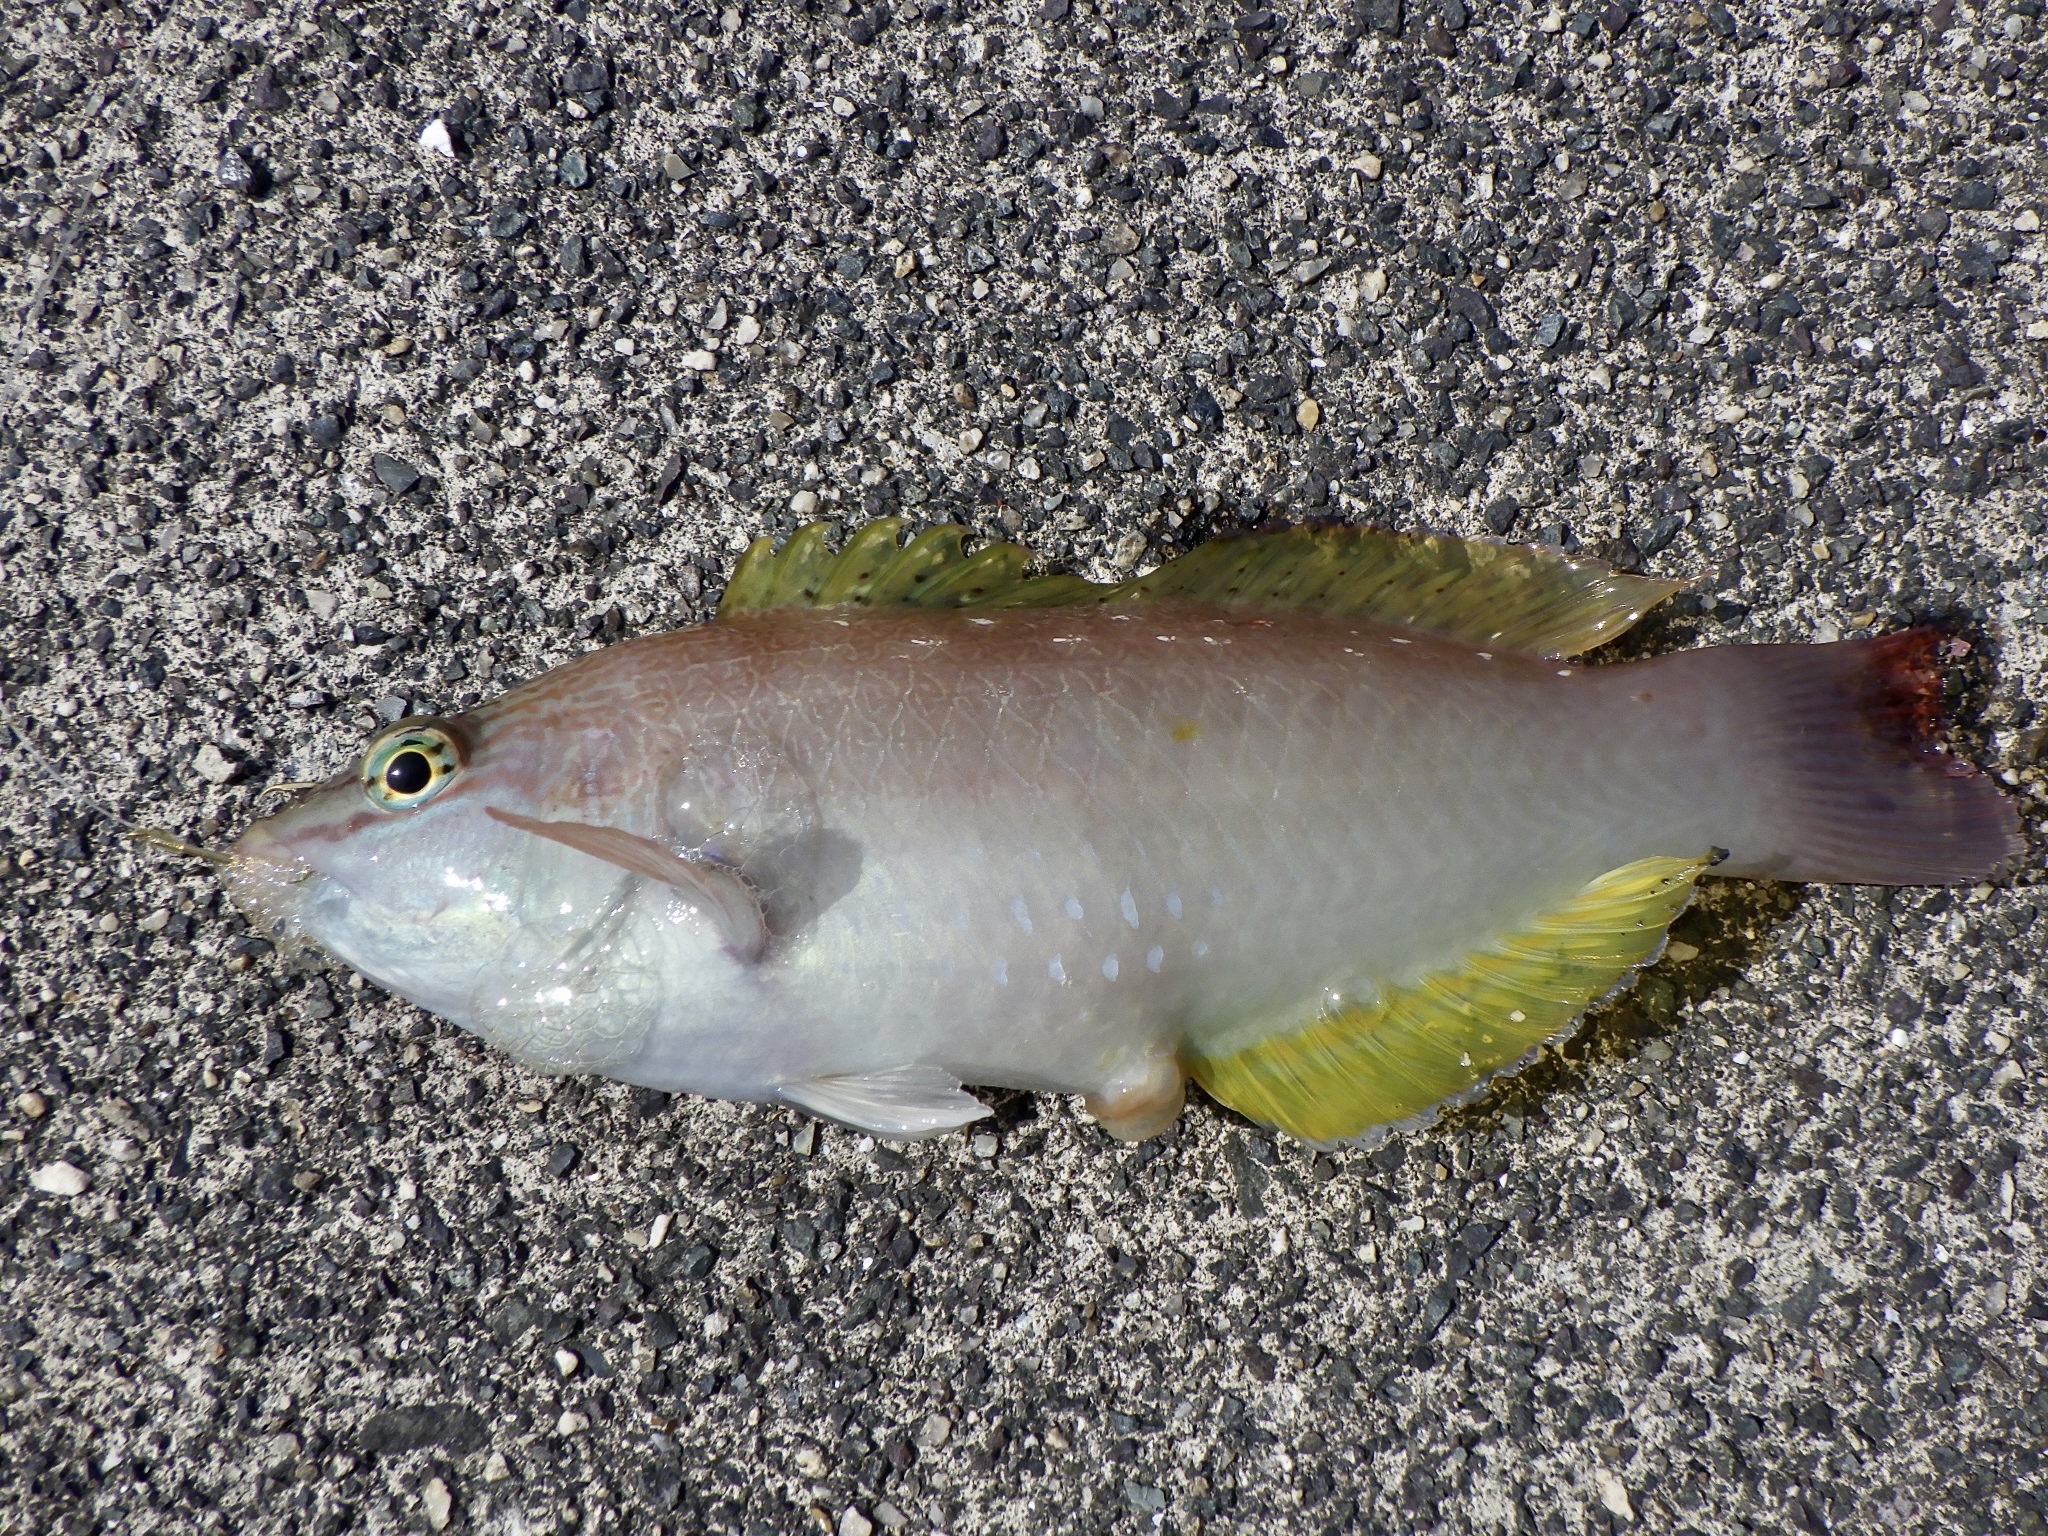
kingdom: Animalia
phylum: Chordata
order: Perciformes
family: Labridae
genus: Pseudolabrus
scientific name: Pseudolabrus sieboldi
